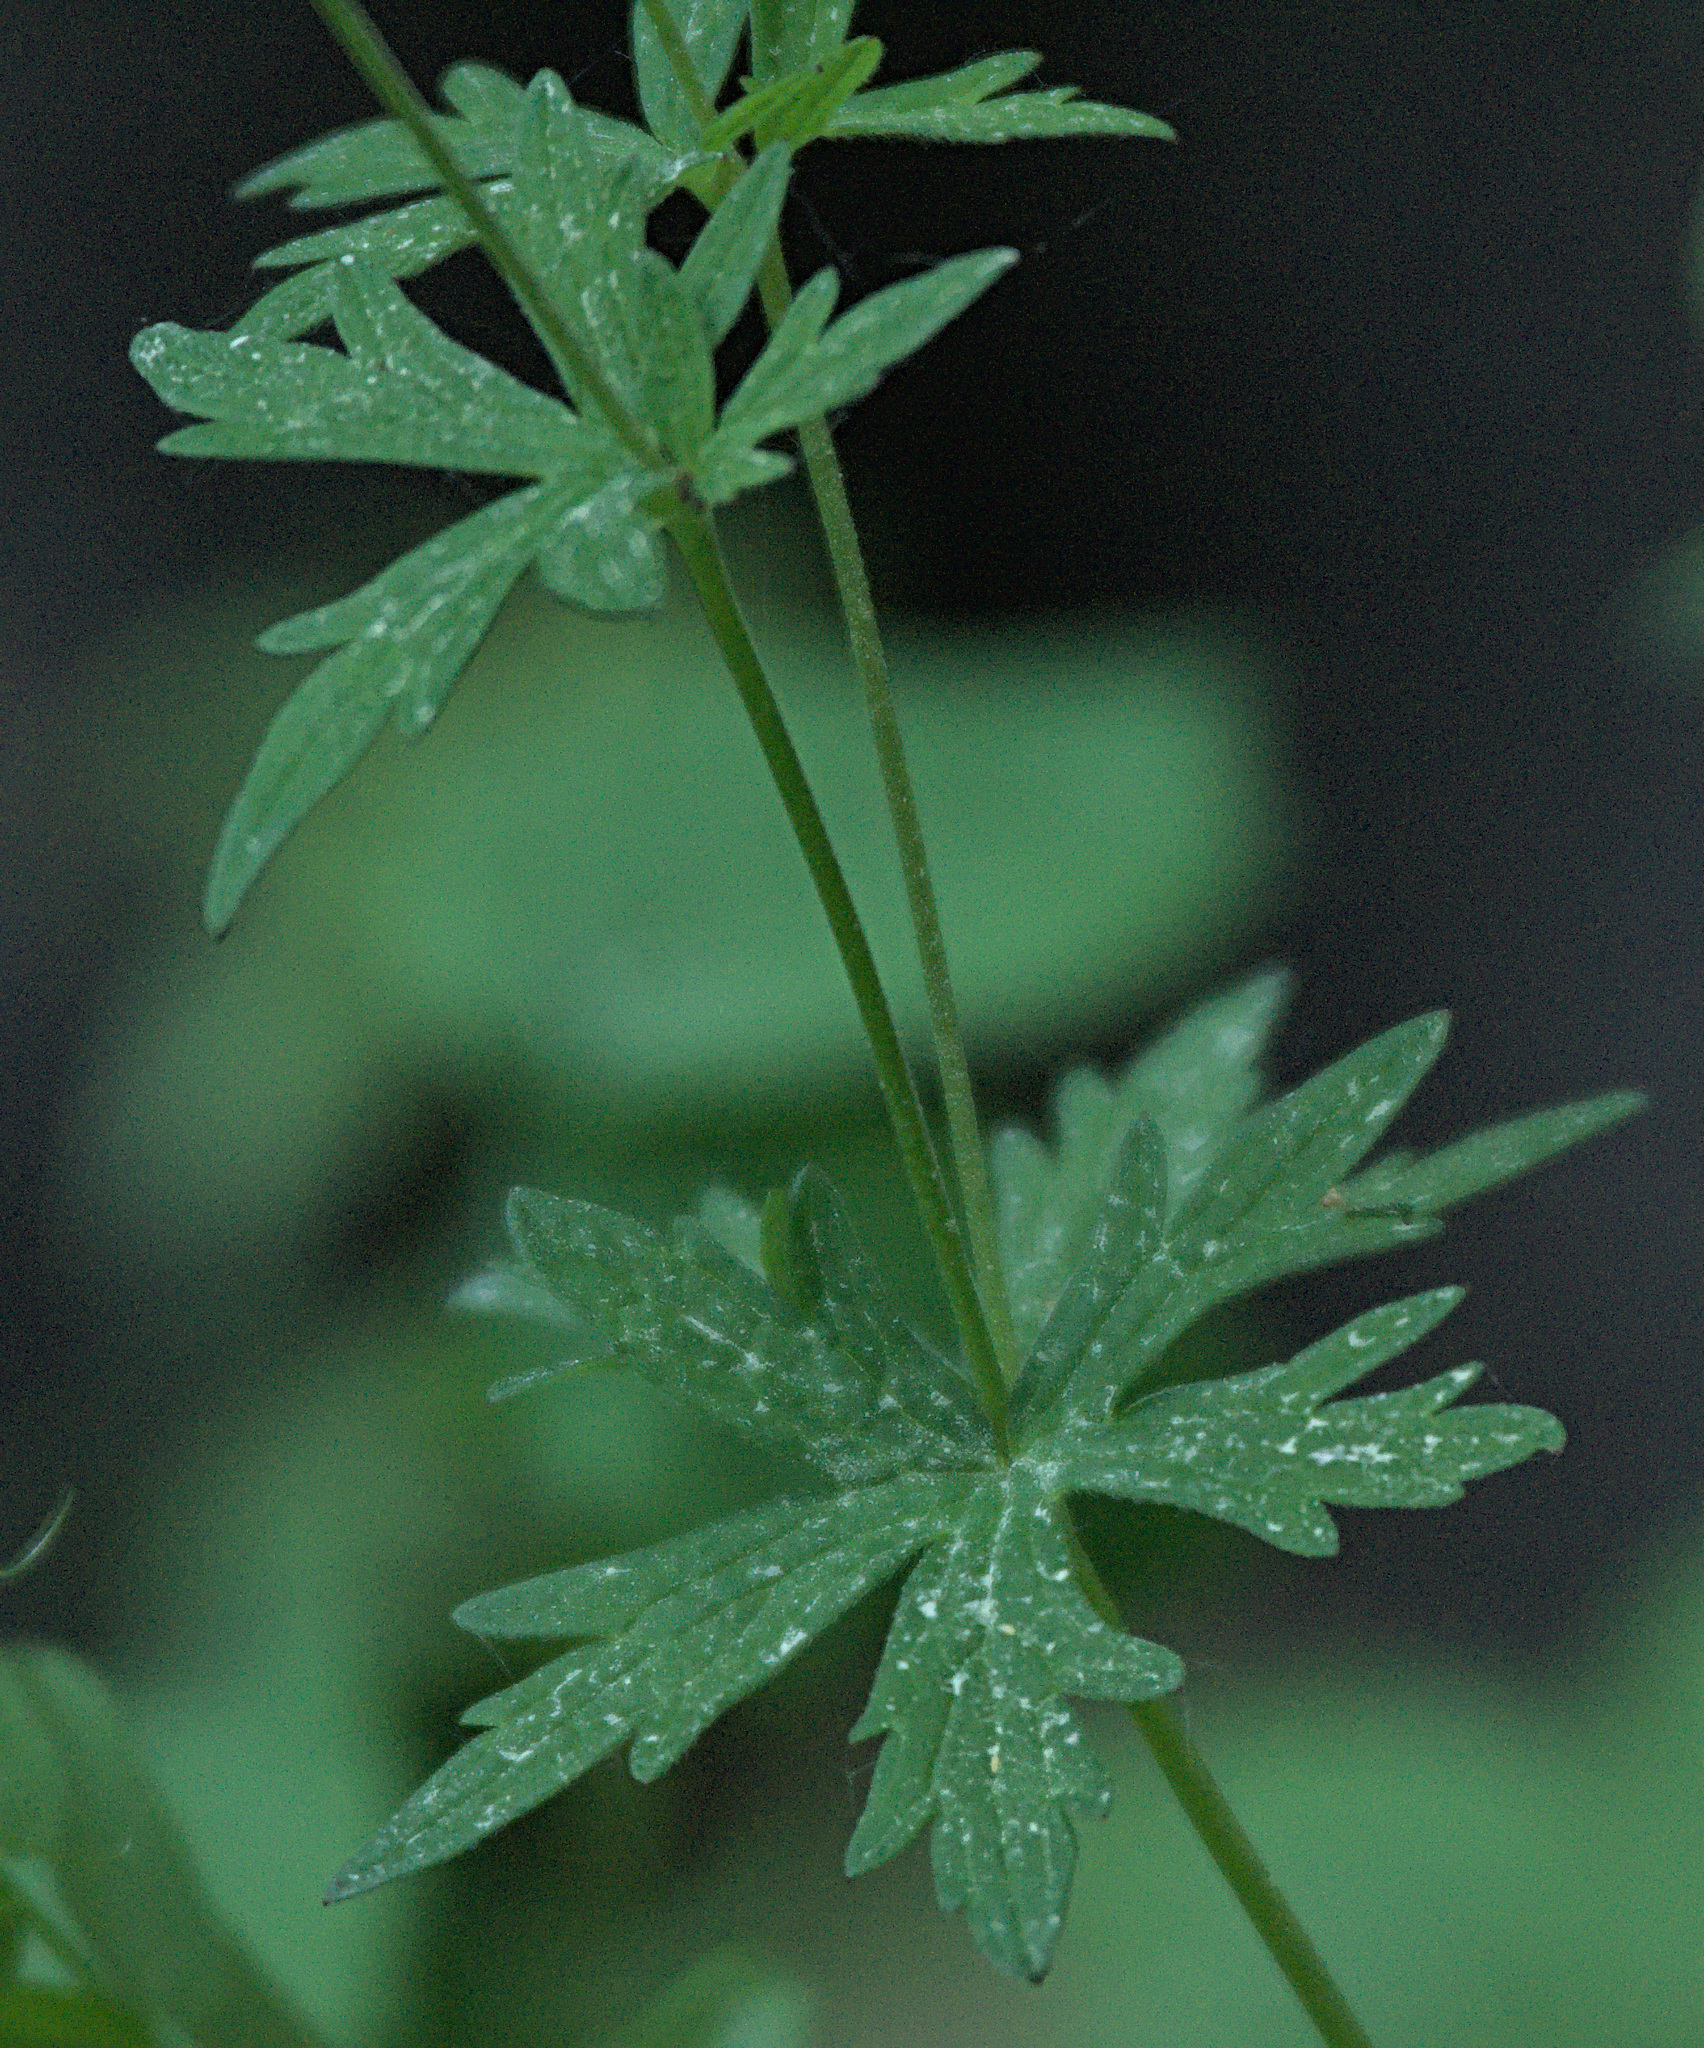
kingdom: Plantae
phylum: Tracheophyta
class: Magnoliopsida
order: Geraniales
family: Geraniaceae
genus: Geranium
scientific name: Geranium pseudosibiricum
